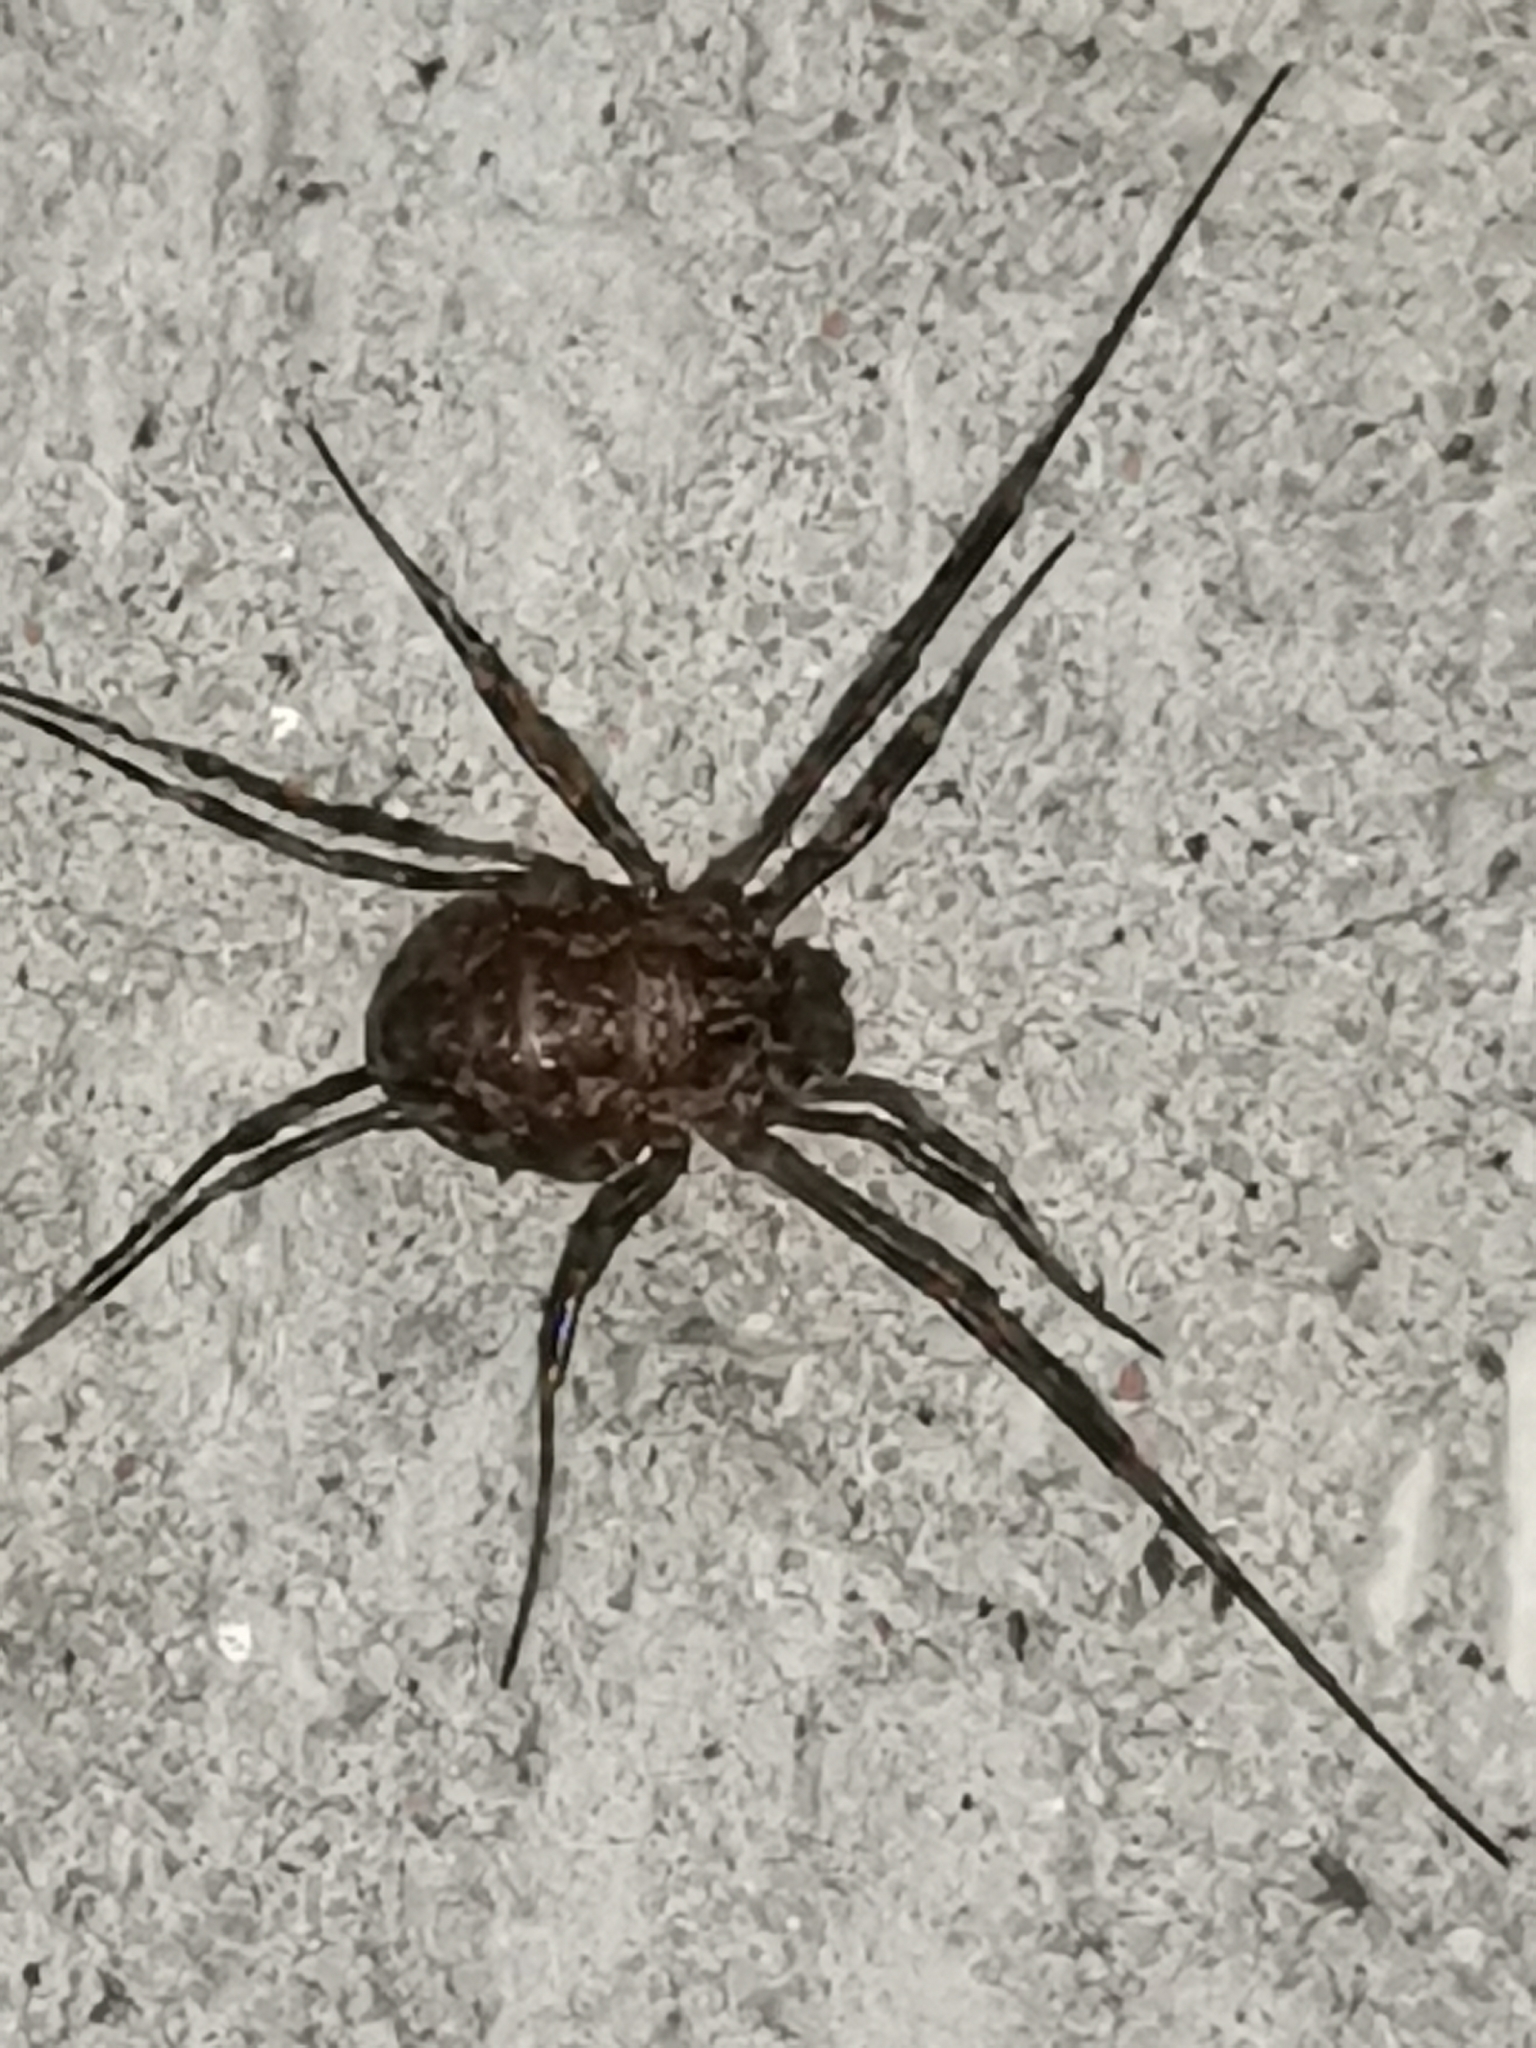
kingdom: Animalia
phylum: Arthropoda
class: Arachnida
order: Opiliones
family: Phalangiidae
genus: Rilaena
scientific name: Rilaena triangularis
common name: Spring harvestman
